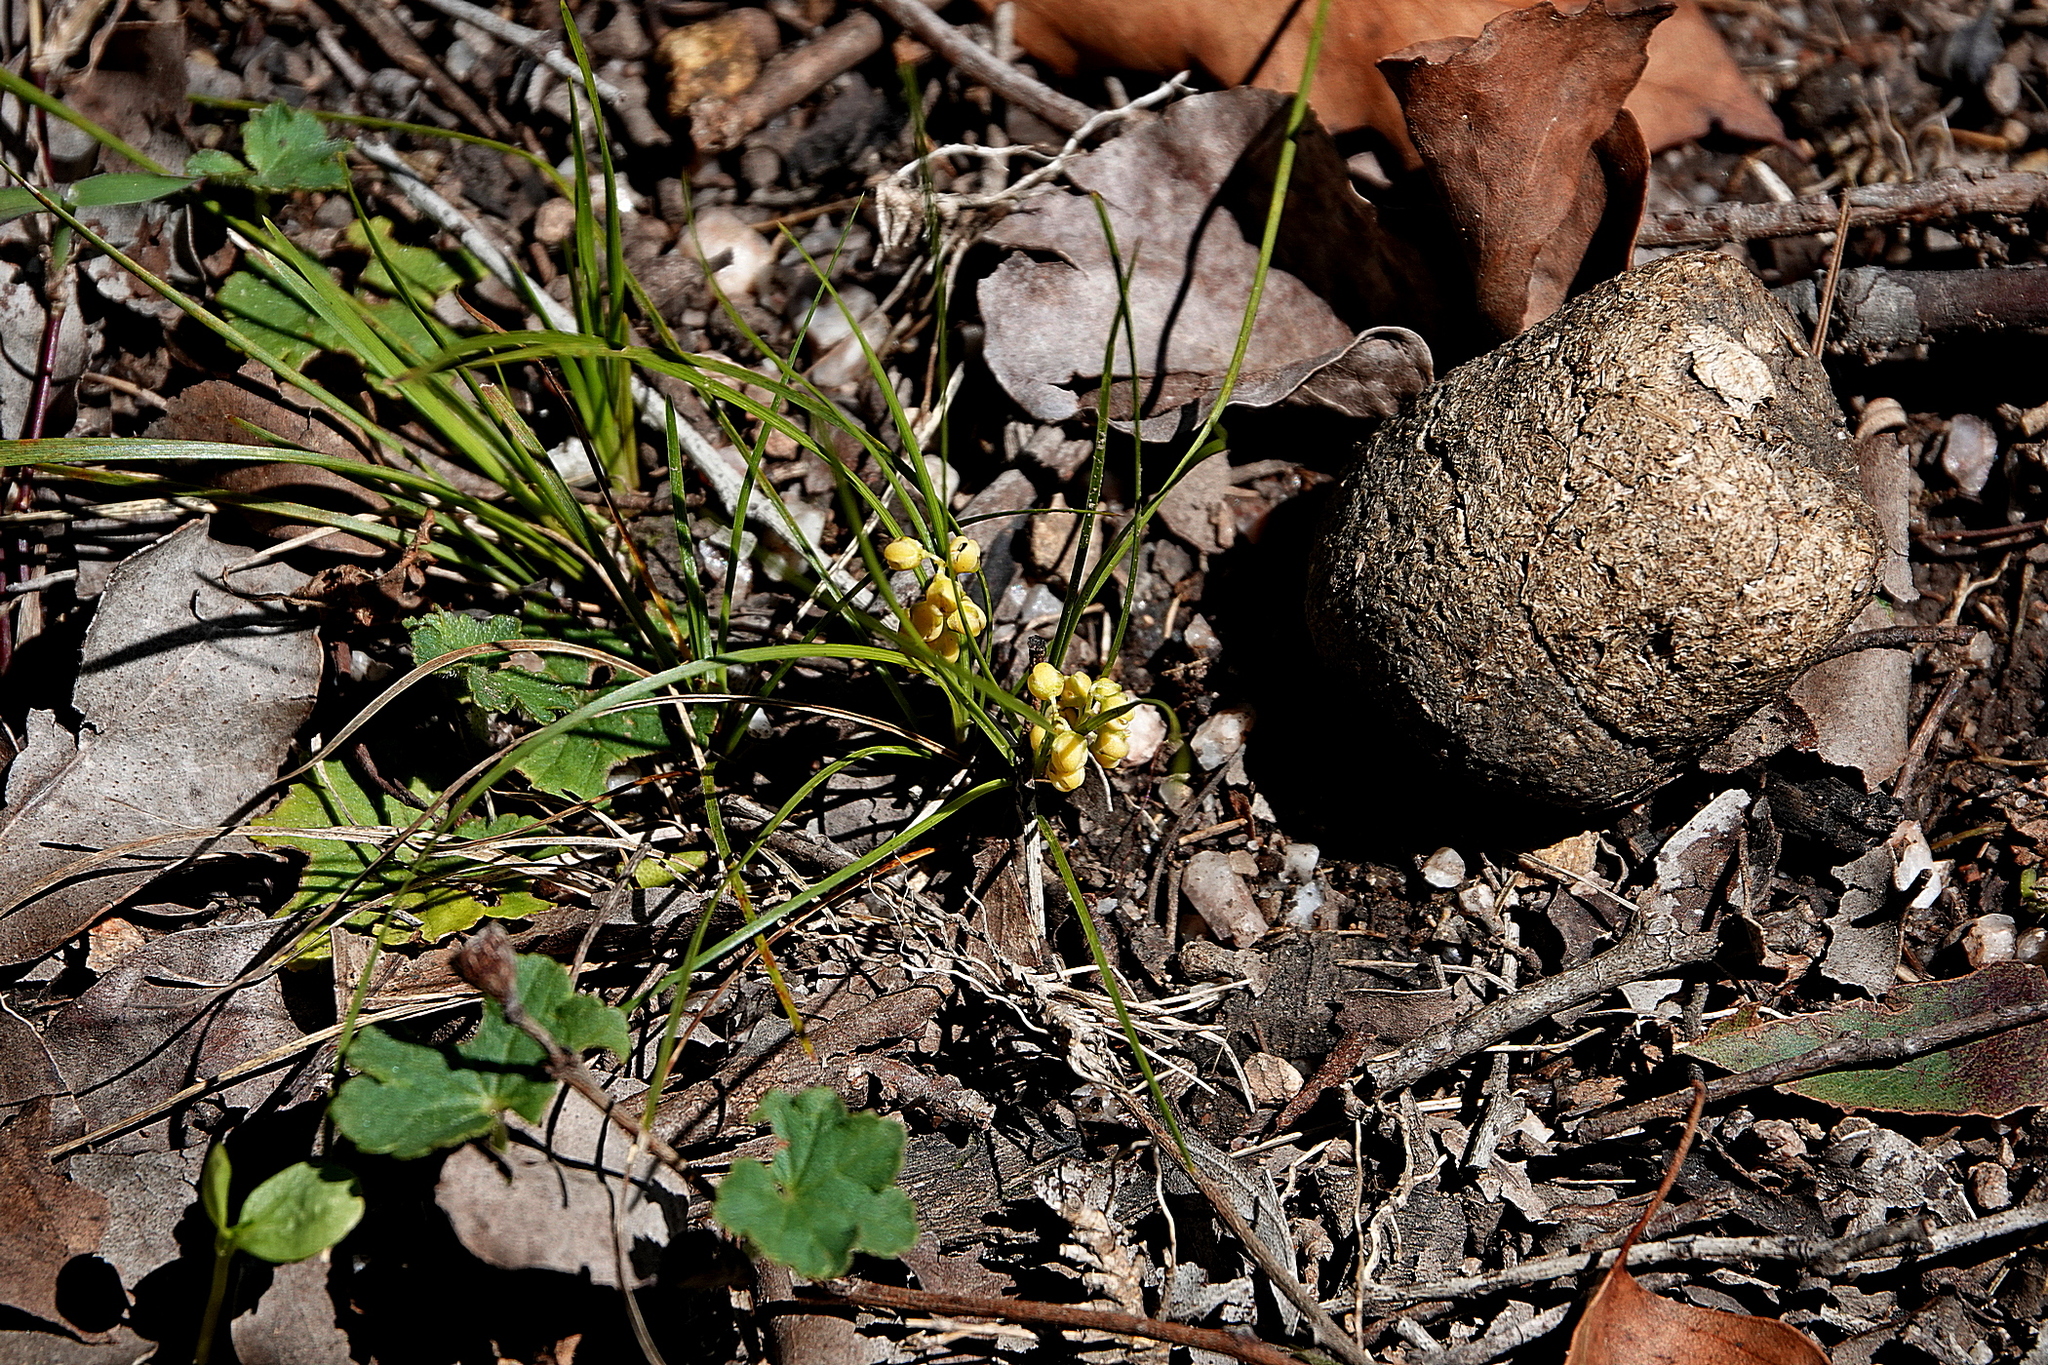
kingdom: Plantae
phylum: Tracheophyta
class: Liliopsida
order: Asparagales
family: Asparagaceae
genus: Lomandra
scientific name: Lomandra filiformis
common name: Wattle mat-rush
